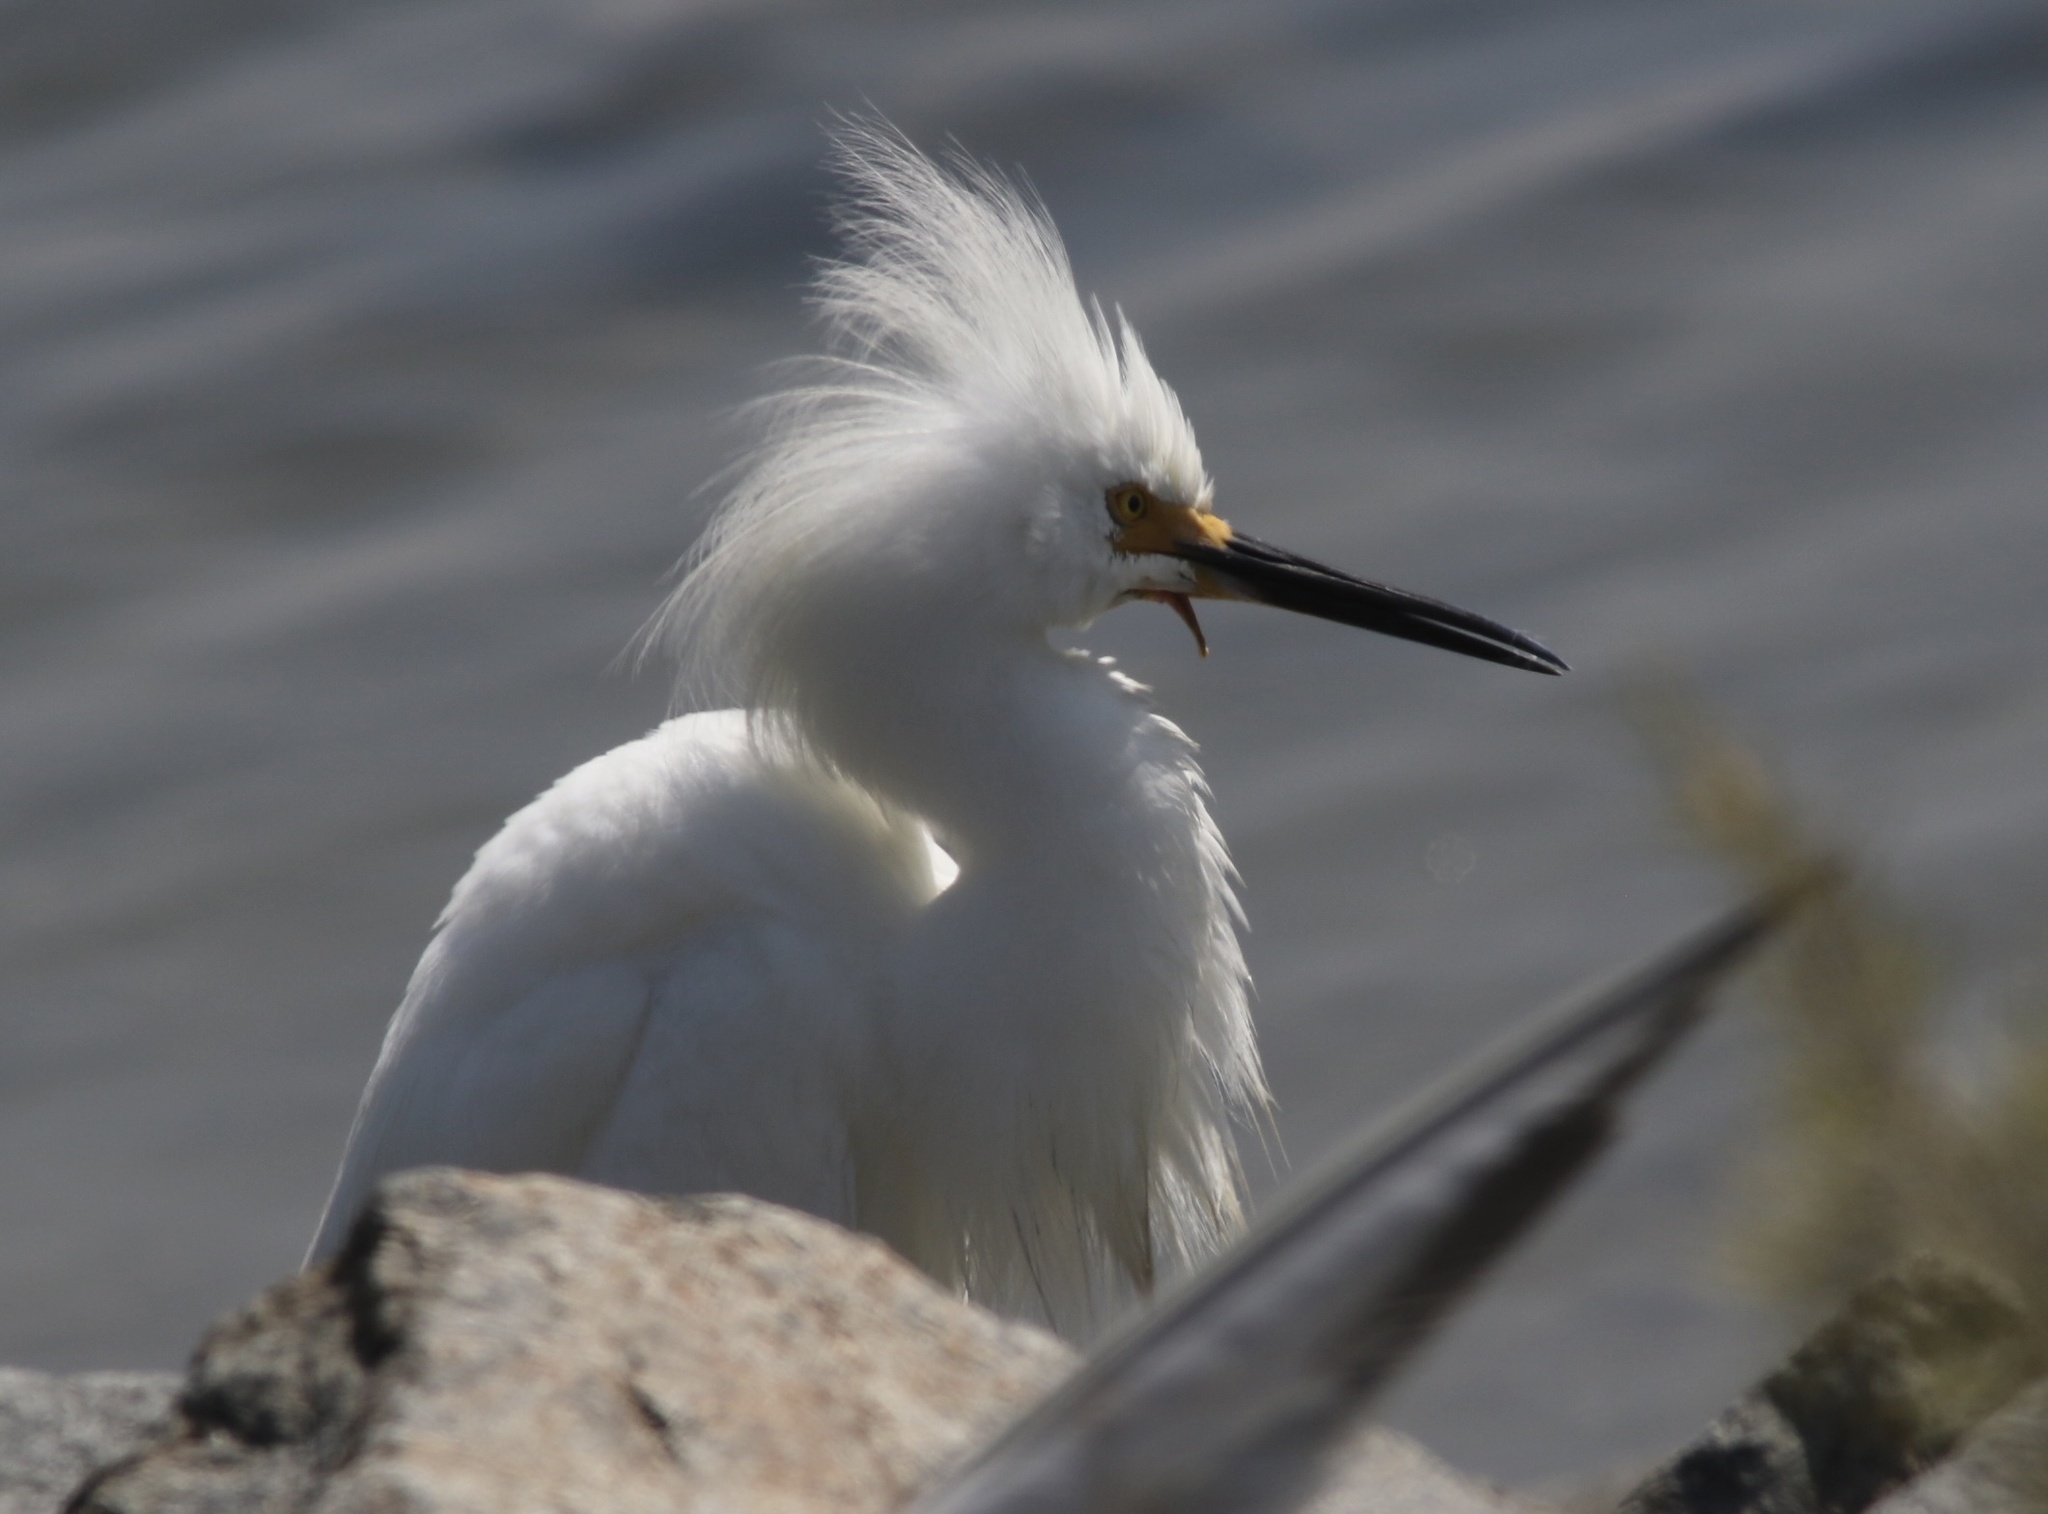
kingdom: Animalia
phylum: Chordata
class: Aves
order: Pelecaniformes
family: Ardeidae
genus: Egretta
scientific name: Egretta thula
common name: Snowy egret
